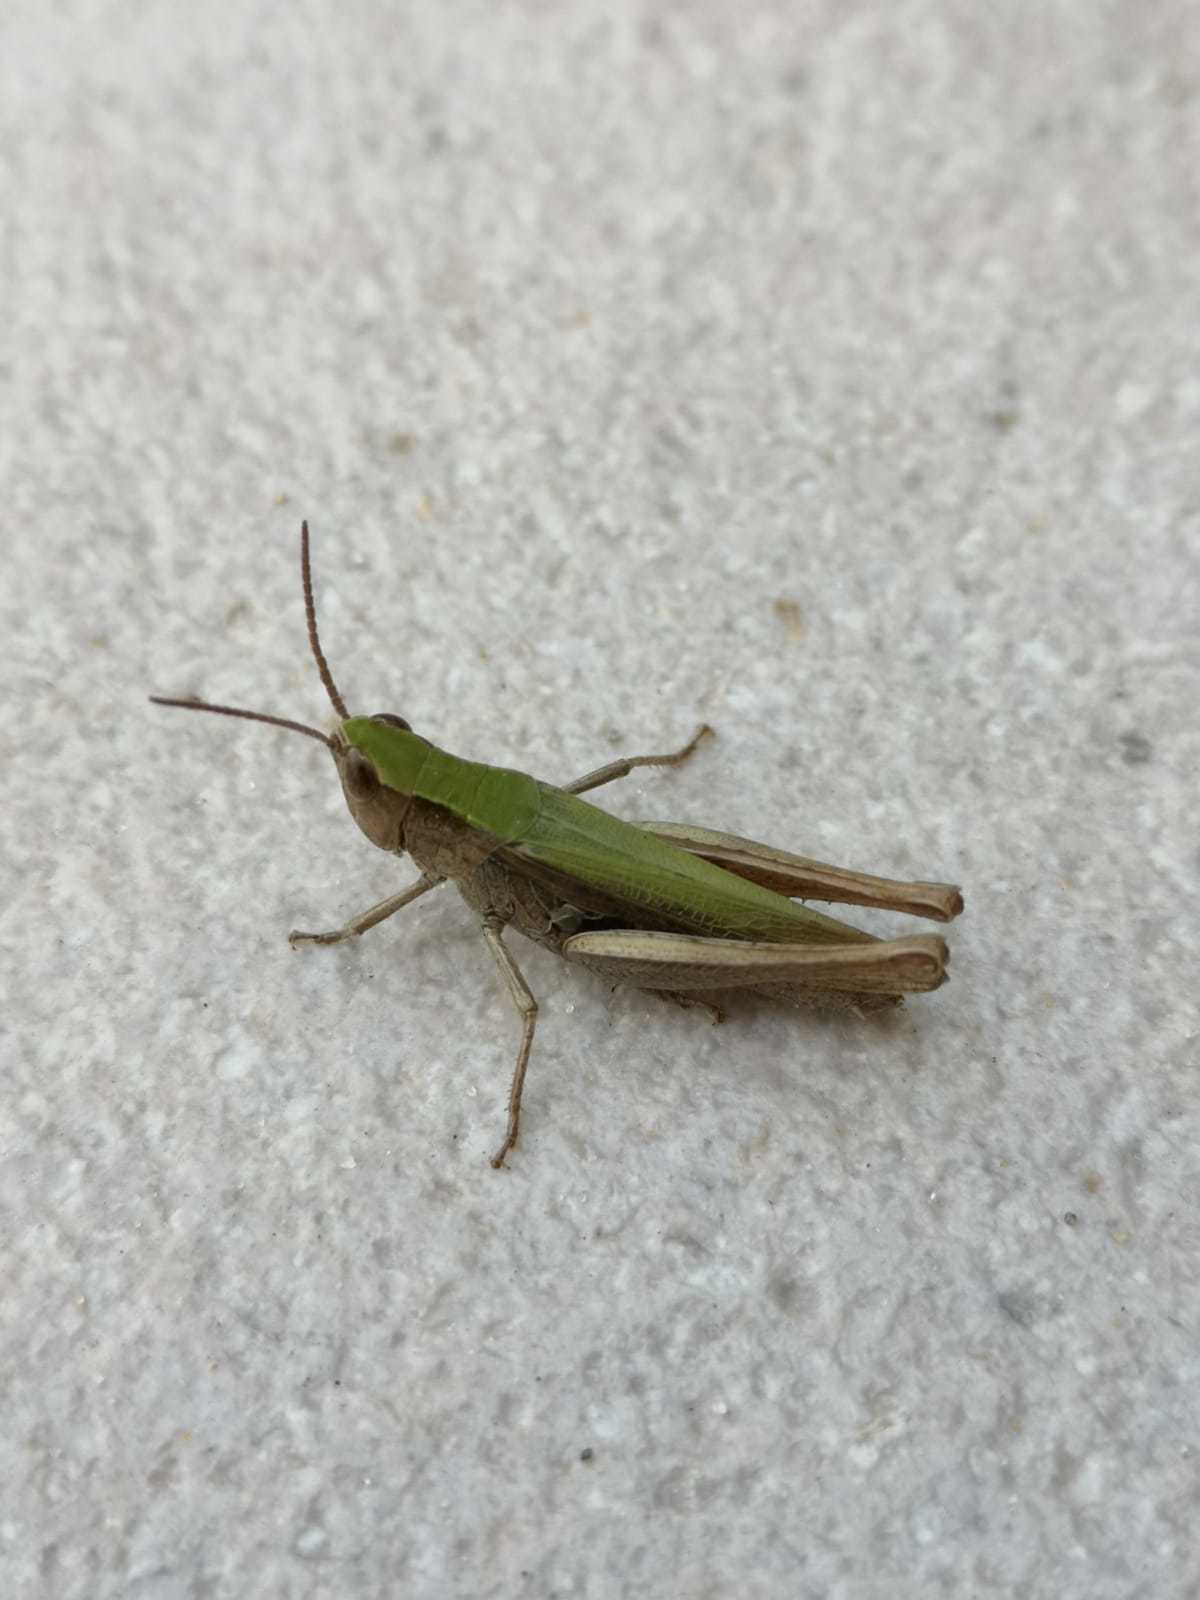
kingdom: Animalia
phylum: Arthropoda
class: Insecta
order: Orthoptera
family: Acrididae
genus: Chorthippus
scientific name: Chorthippus dorsatus
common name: Steppe grasshopper
